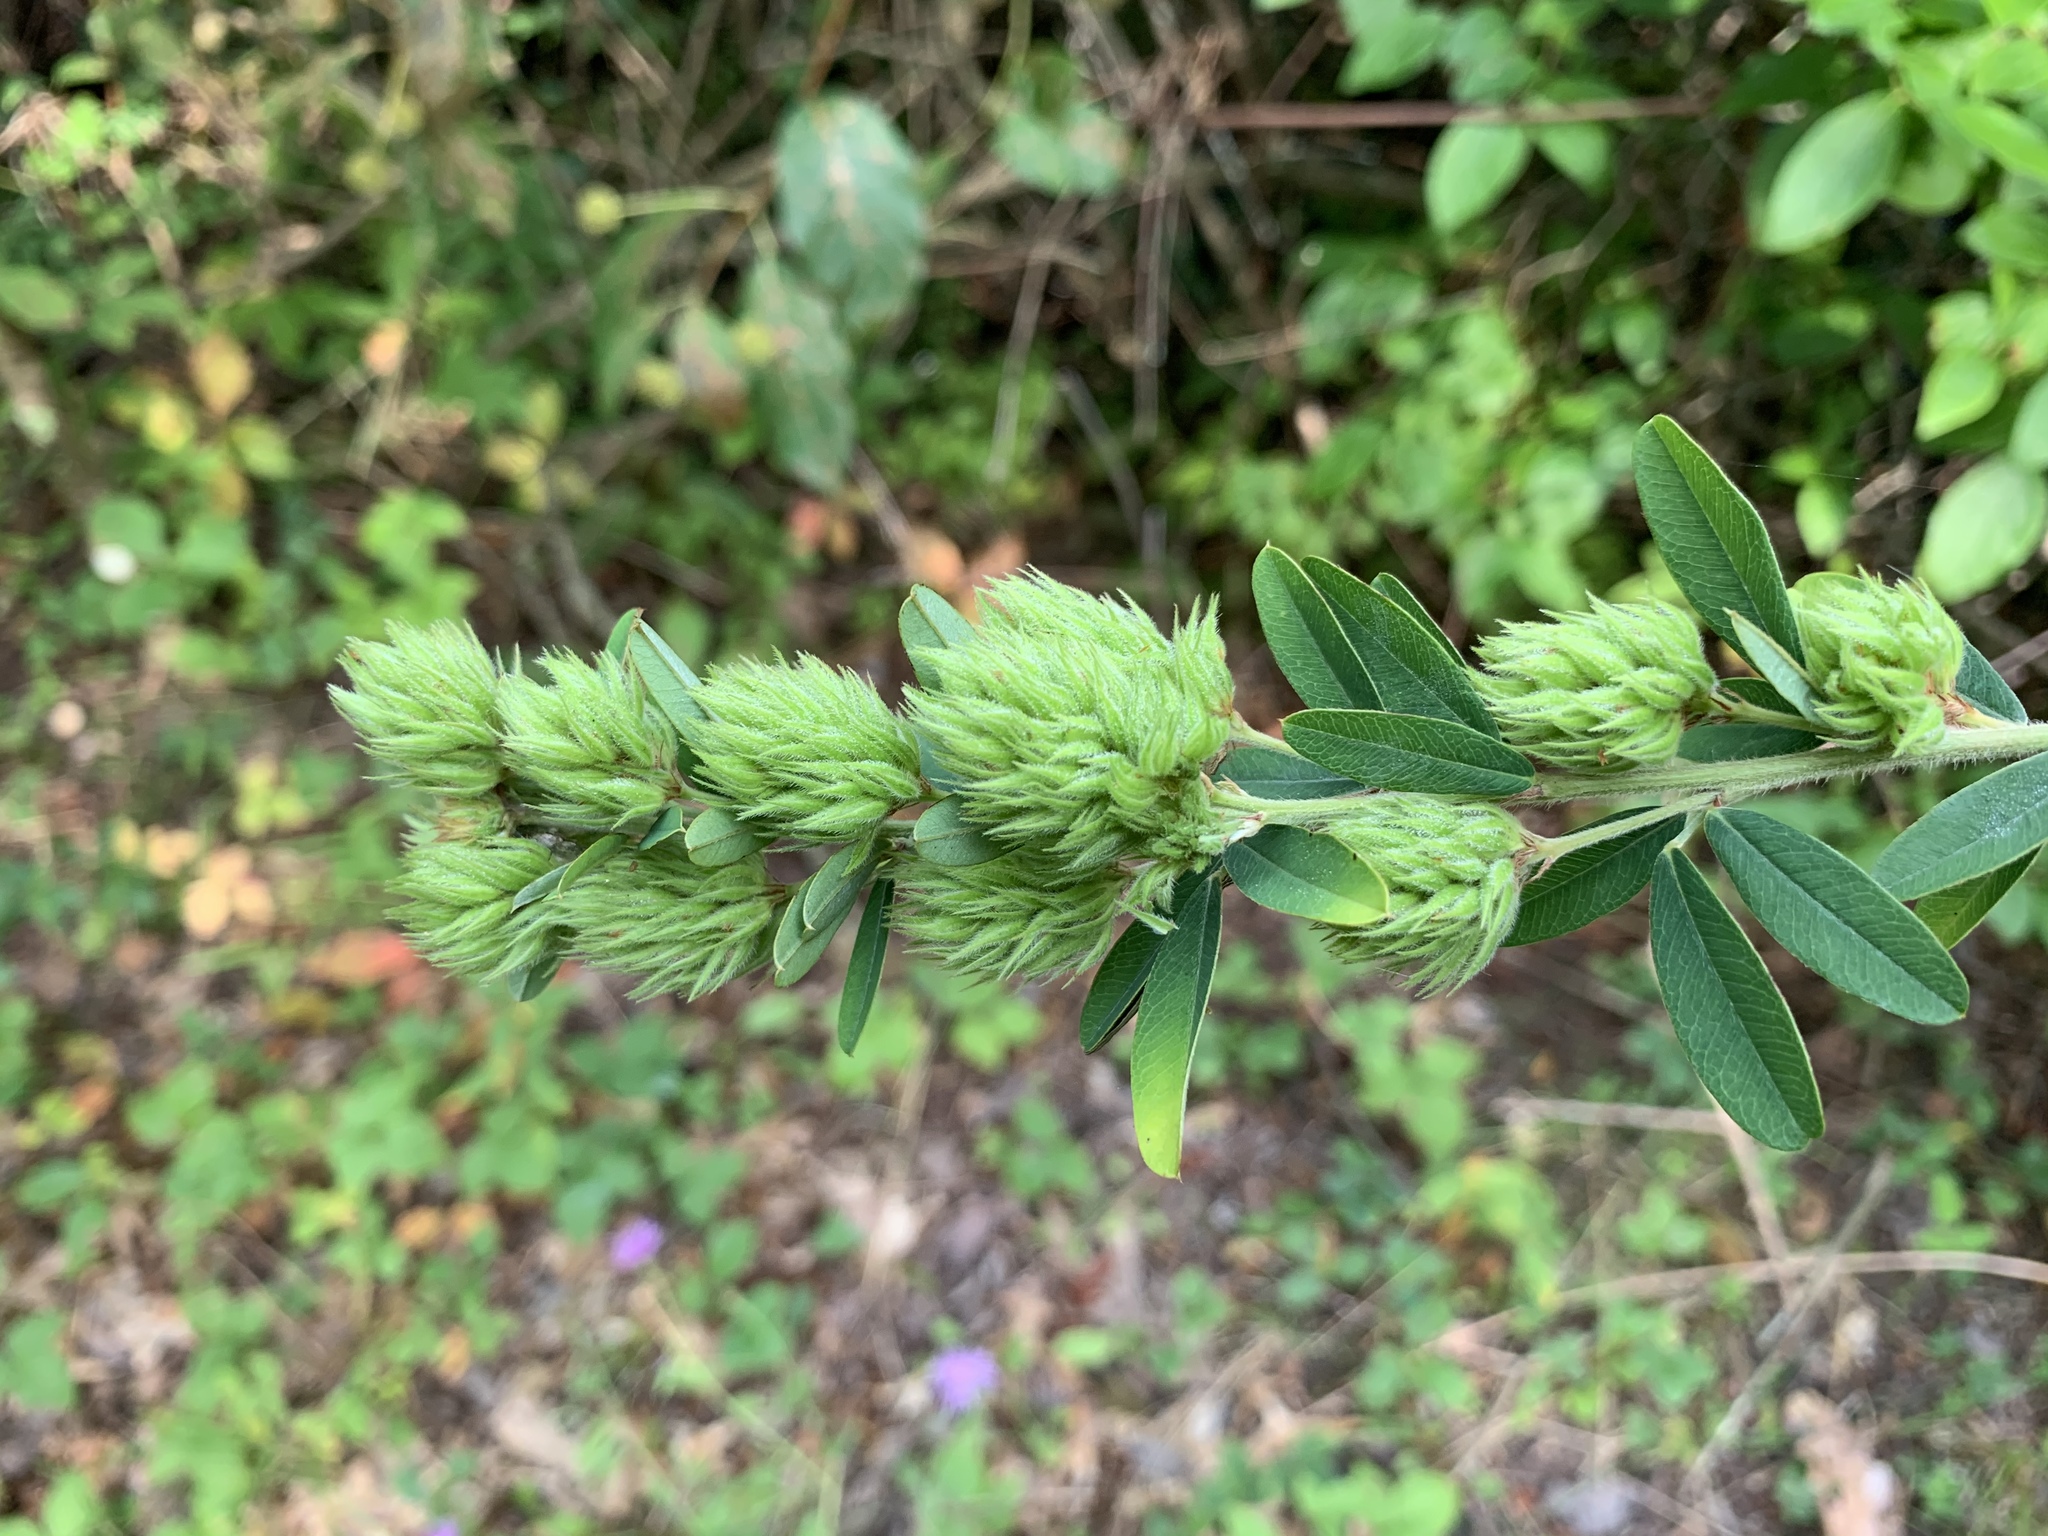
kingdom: Plantae
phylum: Tracheophyta
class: Magnoliopsida
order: Fabales
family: Fabaceae
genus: Lespedeza
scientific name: Lespedeza capitata
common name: Dusty clover
